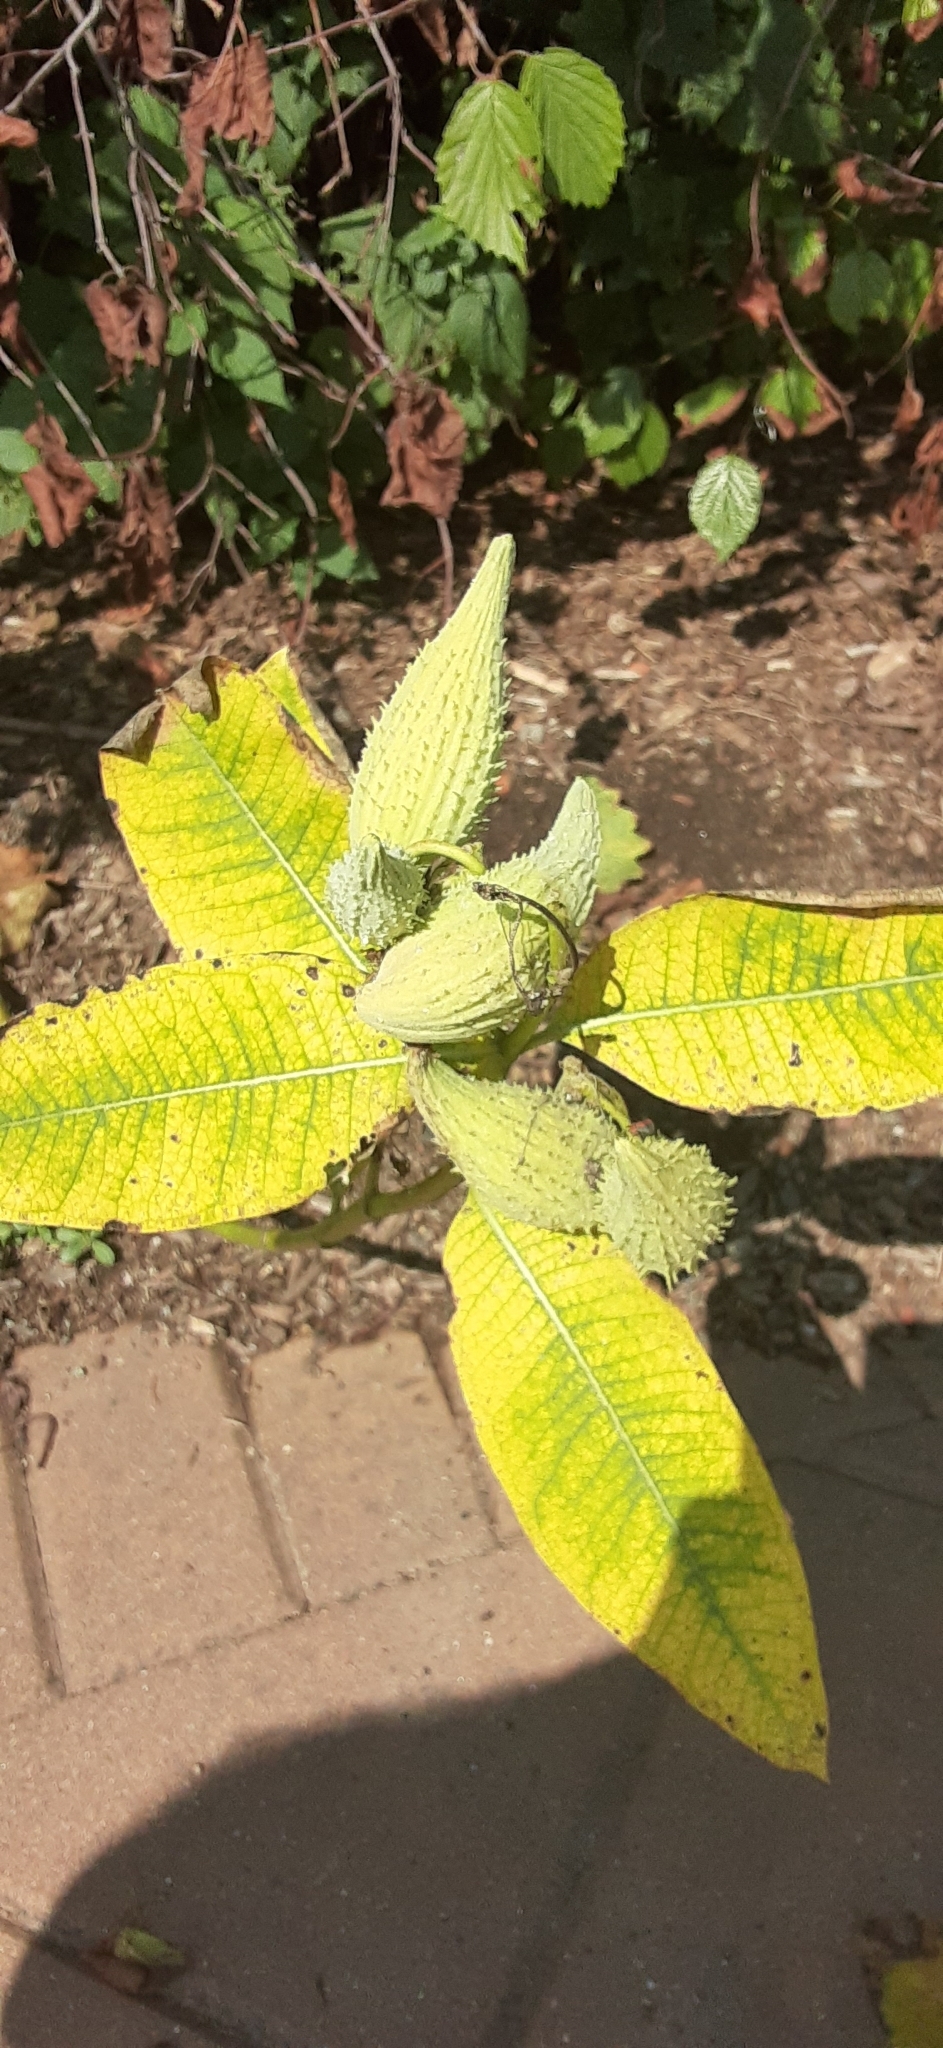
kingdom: Plantae
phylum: Tracheophyta
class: Magnoliopsida
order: Gentianales
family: Apocynaceae
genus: Asclepias
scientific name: Asclepias syriaca
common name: Common milkweed
